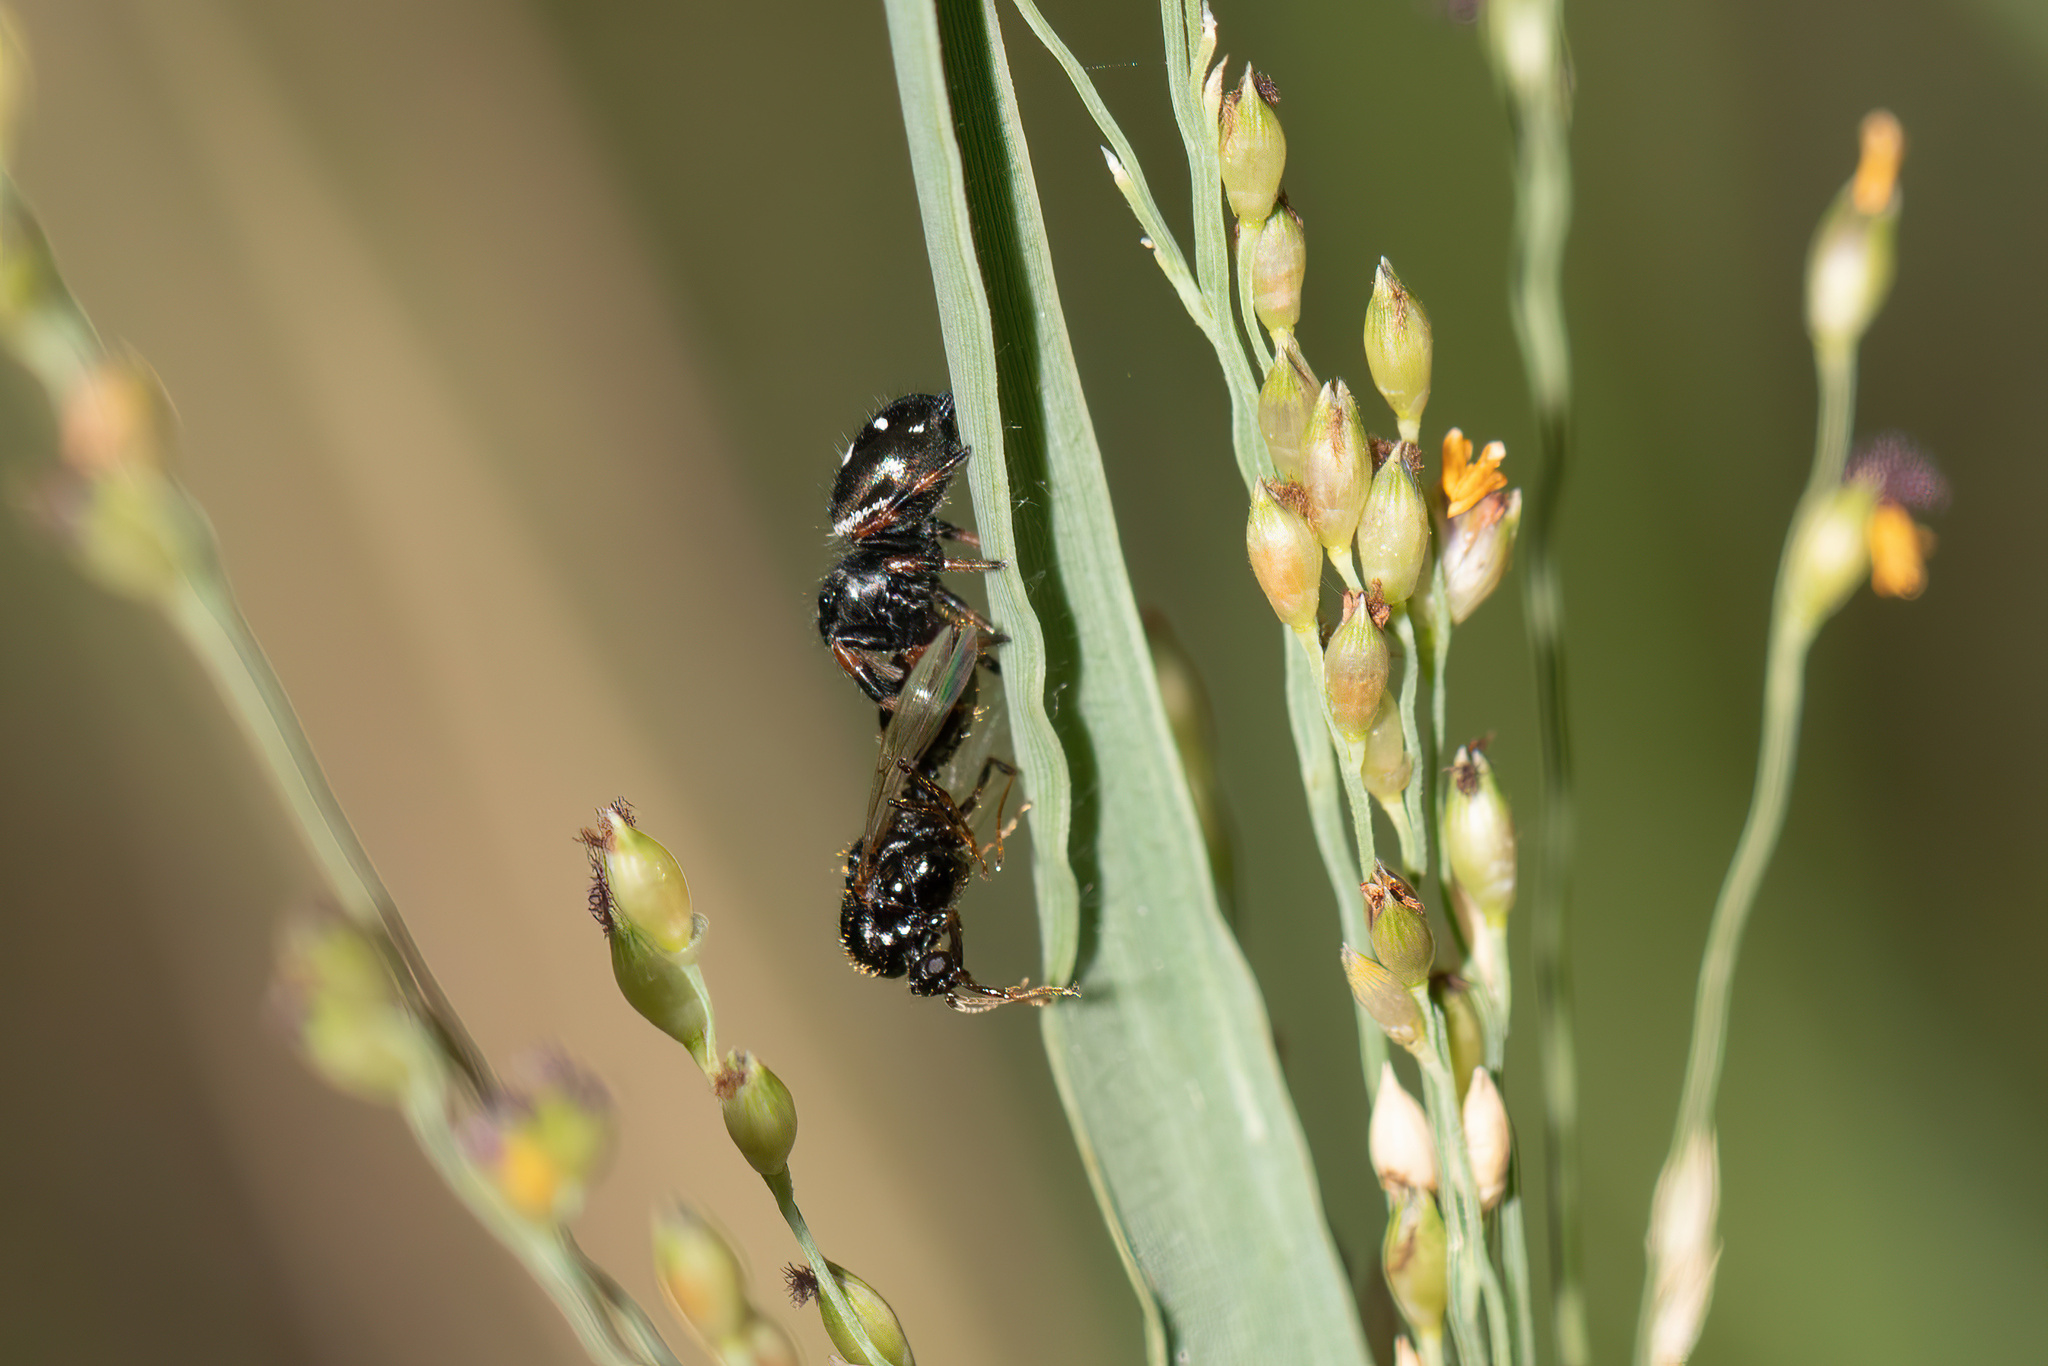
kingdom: Animalia
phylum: Arthropoda
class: Arachnida
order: Araneae
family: Salticidae
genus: Phidippus
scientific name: Phidippus regius
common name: Regal jumper
